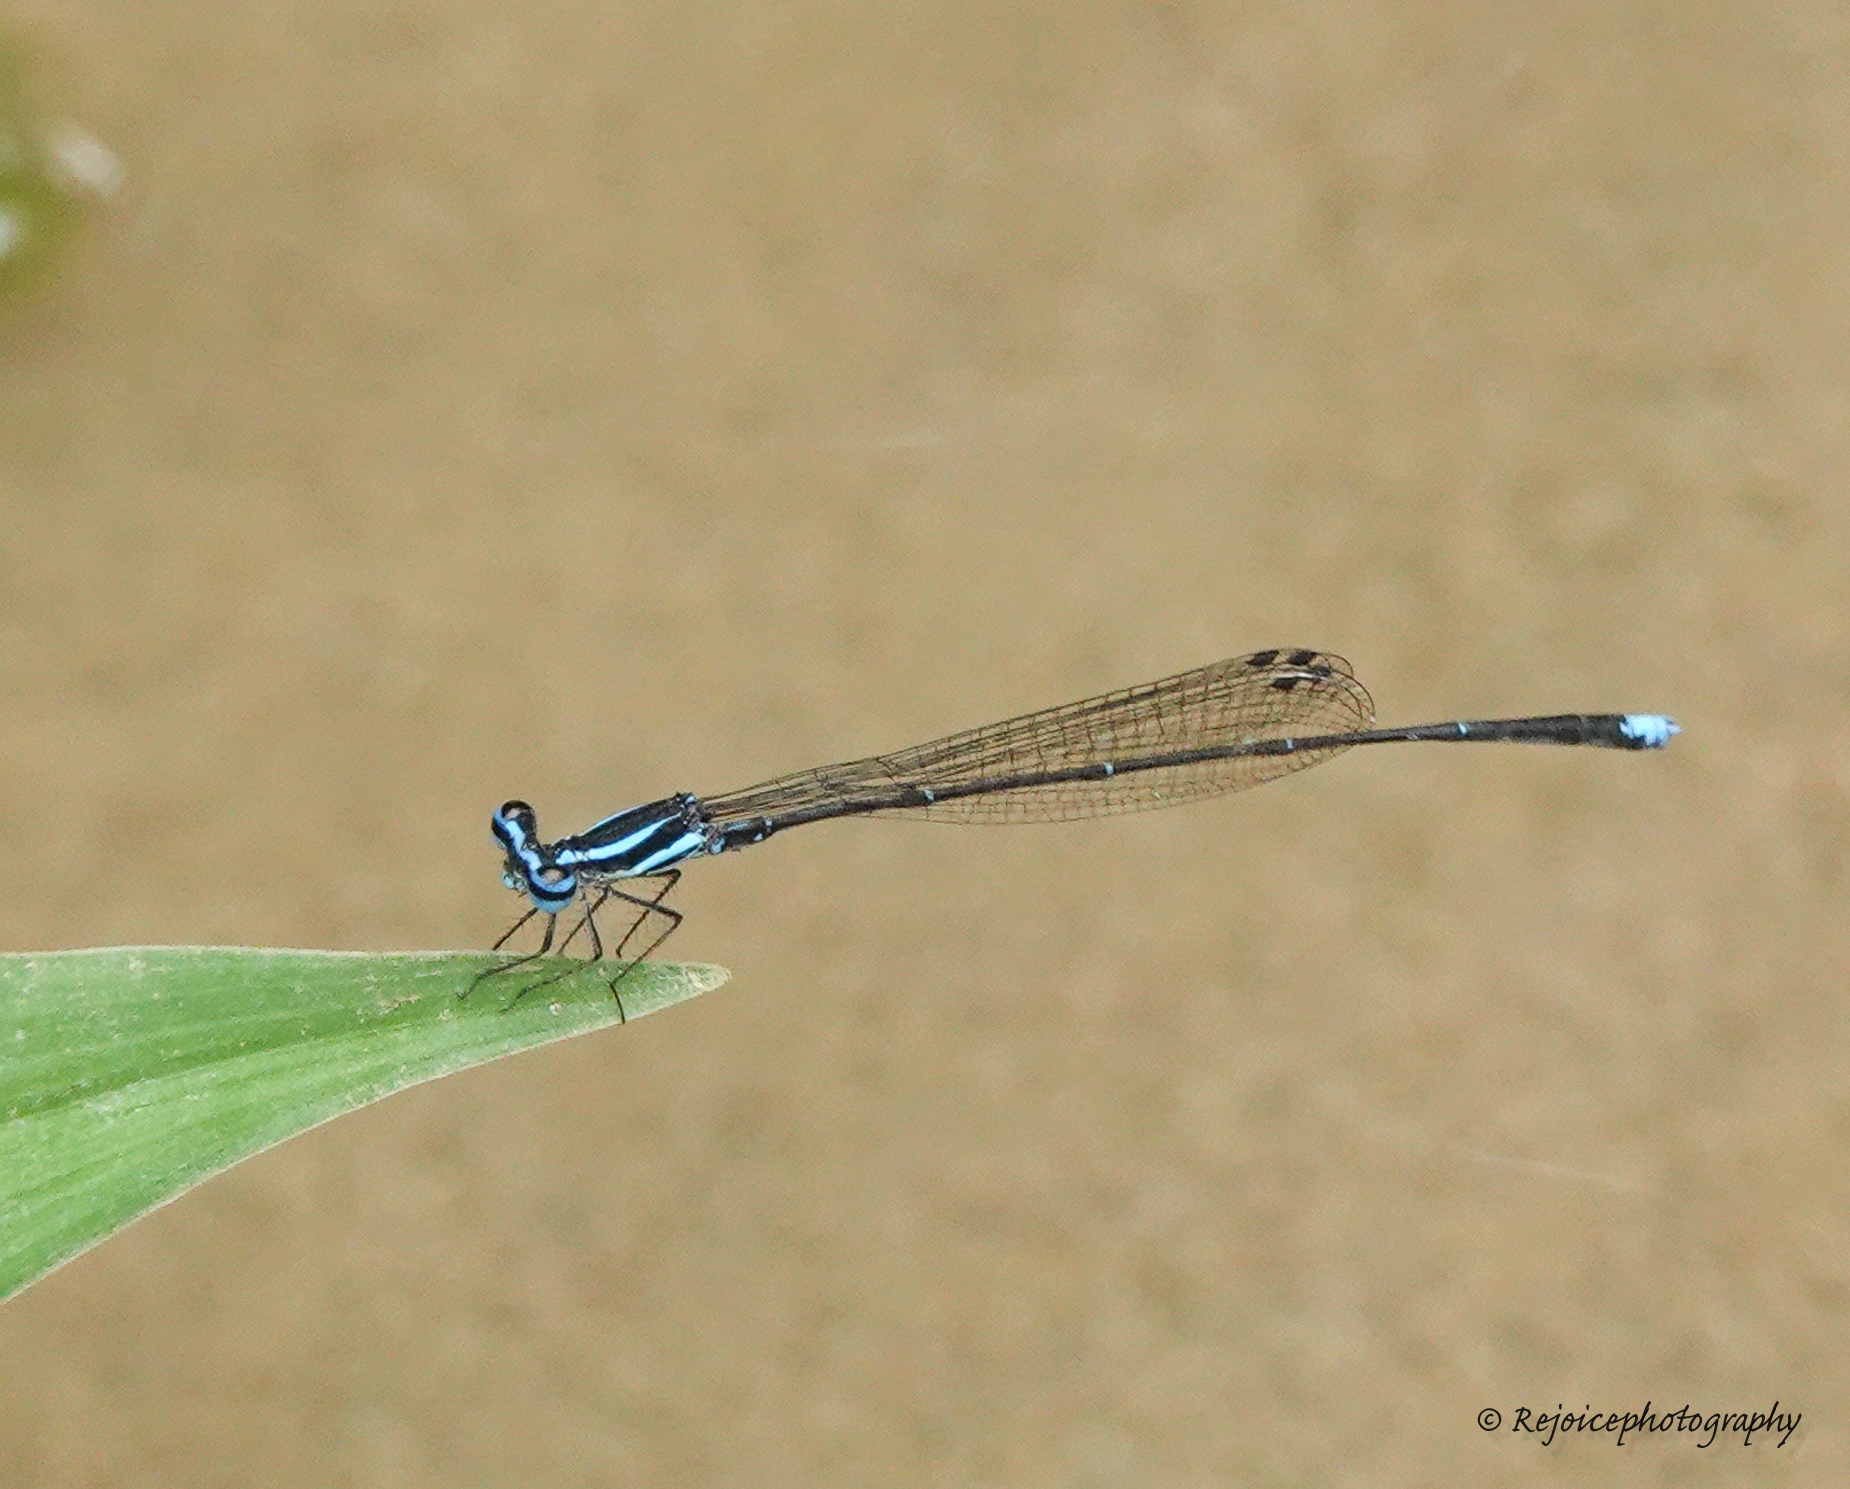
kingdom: Animalia
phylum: Arthropoda
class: Insecta
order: Odonata
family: Platycnemididae
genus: Elattoneura
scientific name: Elattoneura campioni
